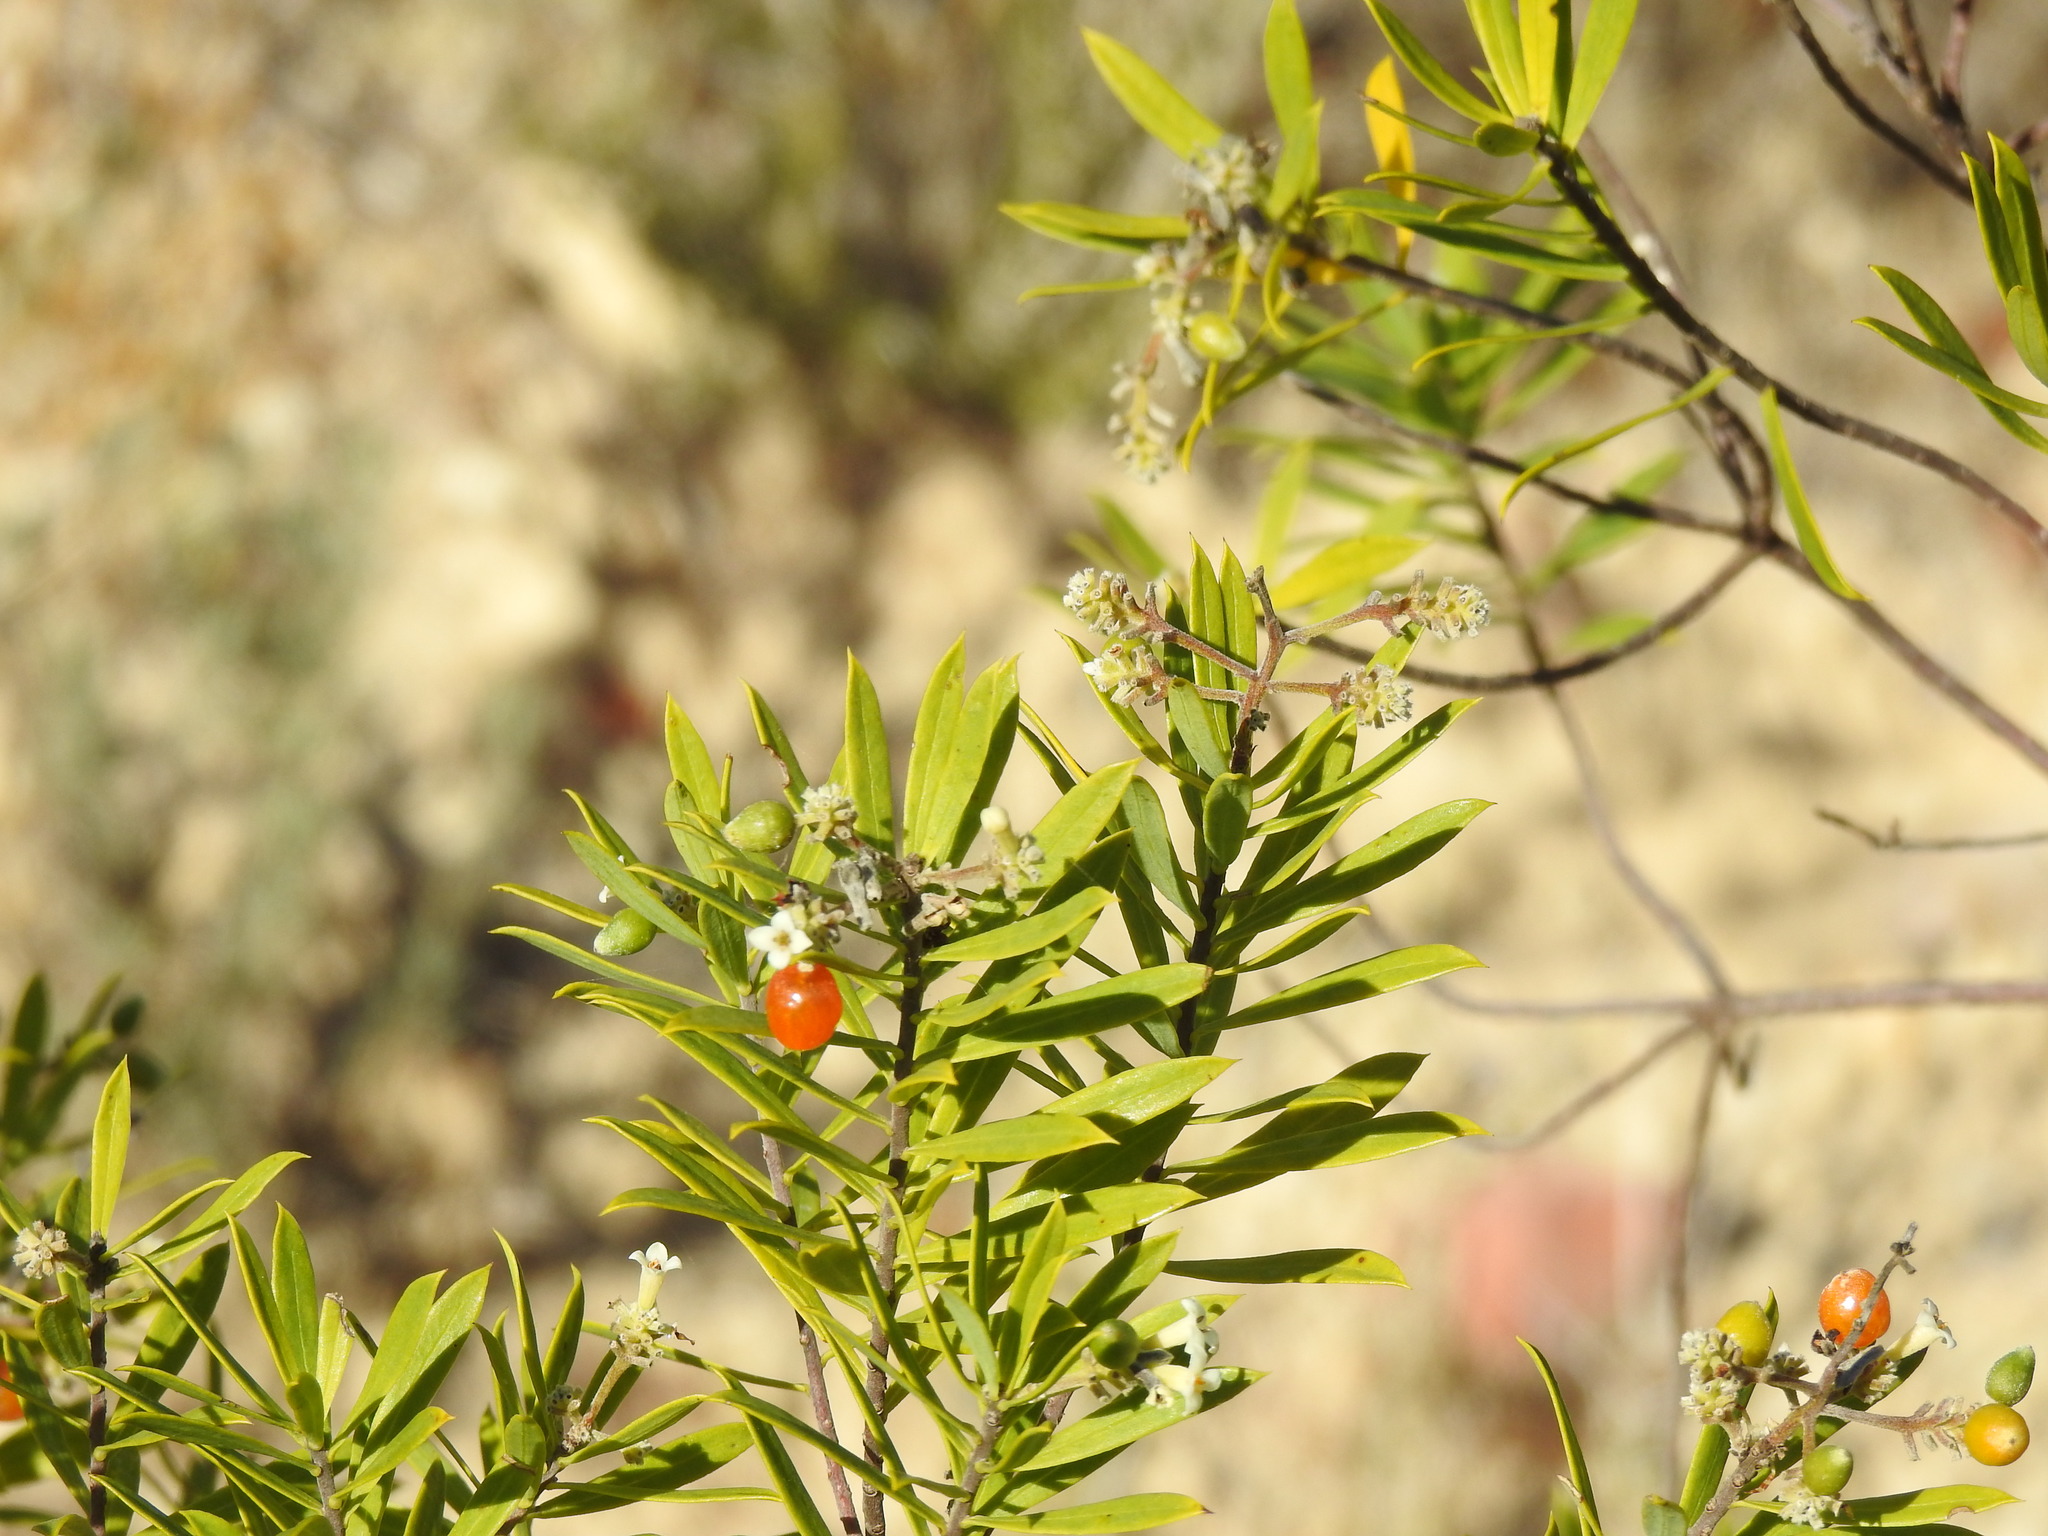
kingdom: Plantae
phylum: Tracheophyta
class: Magnoliopsida
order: Malvales
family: Thymelaeaceae
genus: Daphne
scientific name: Daphne gnidium
